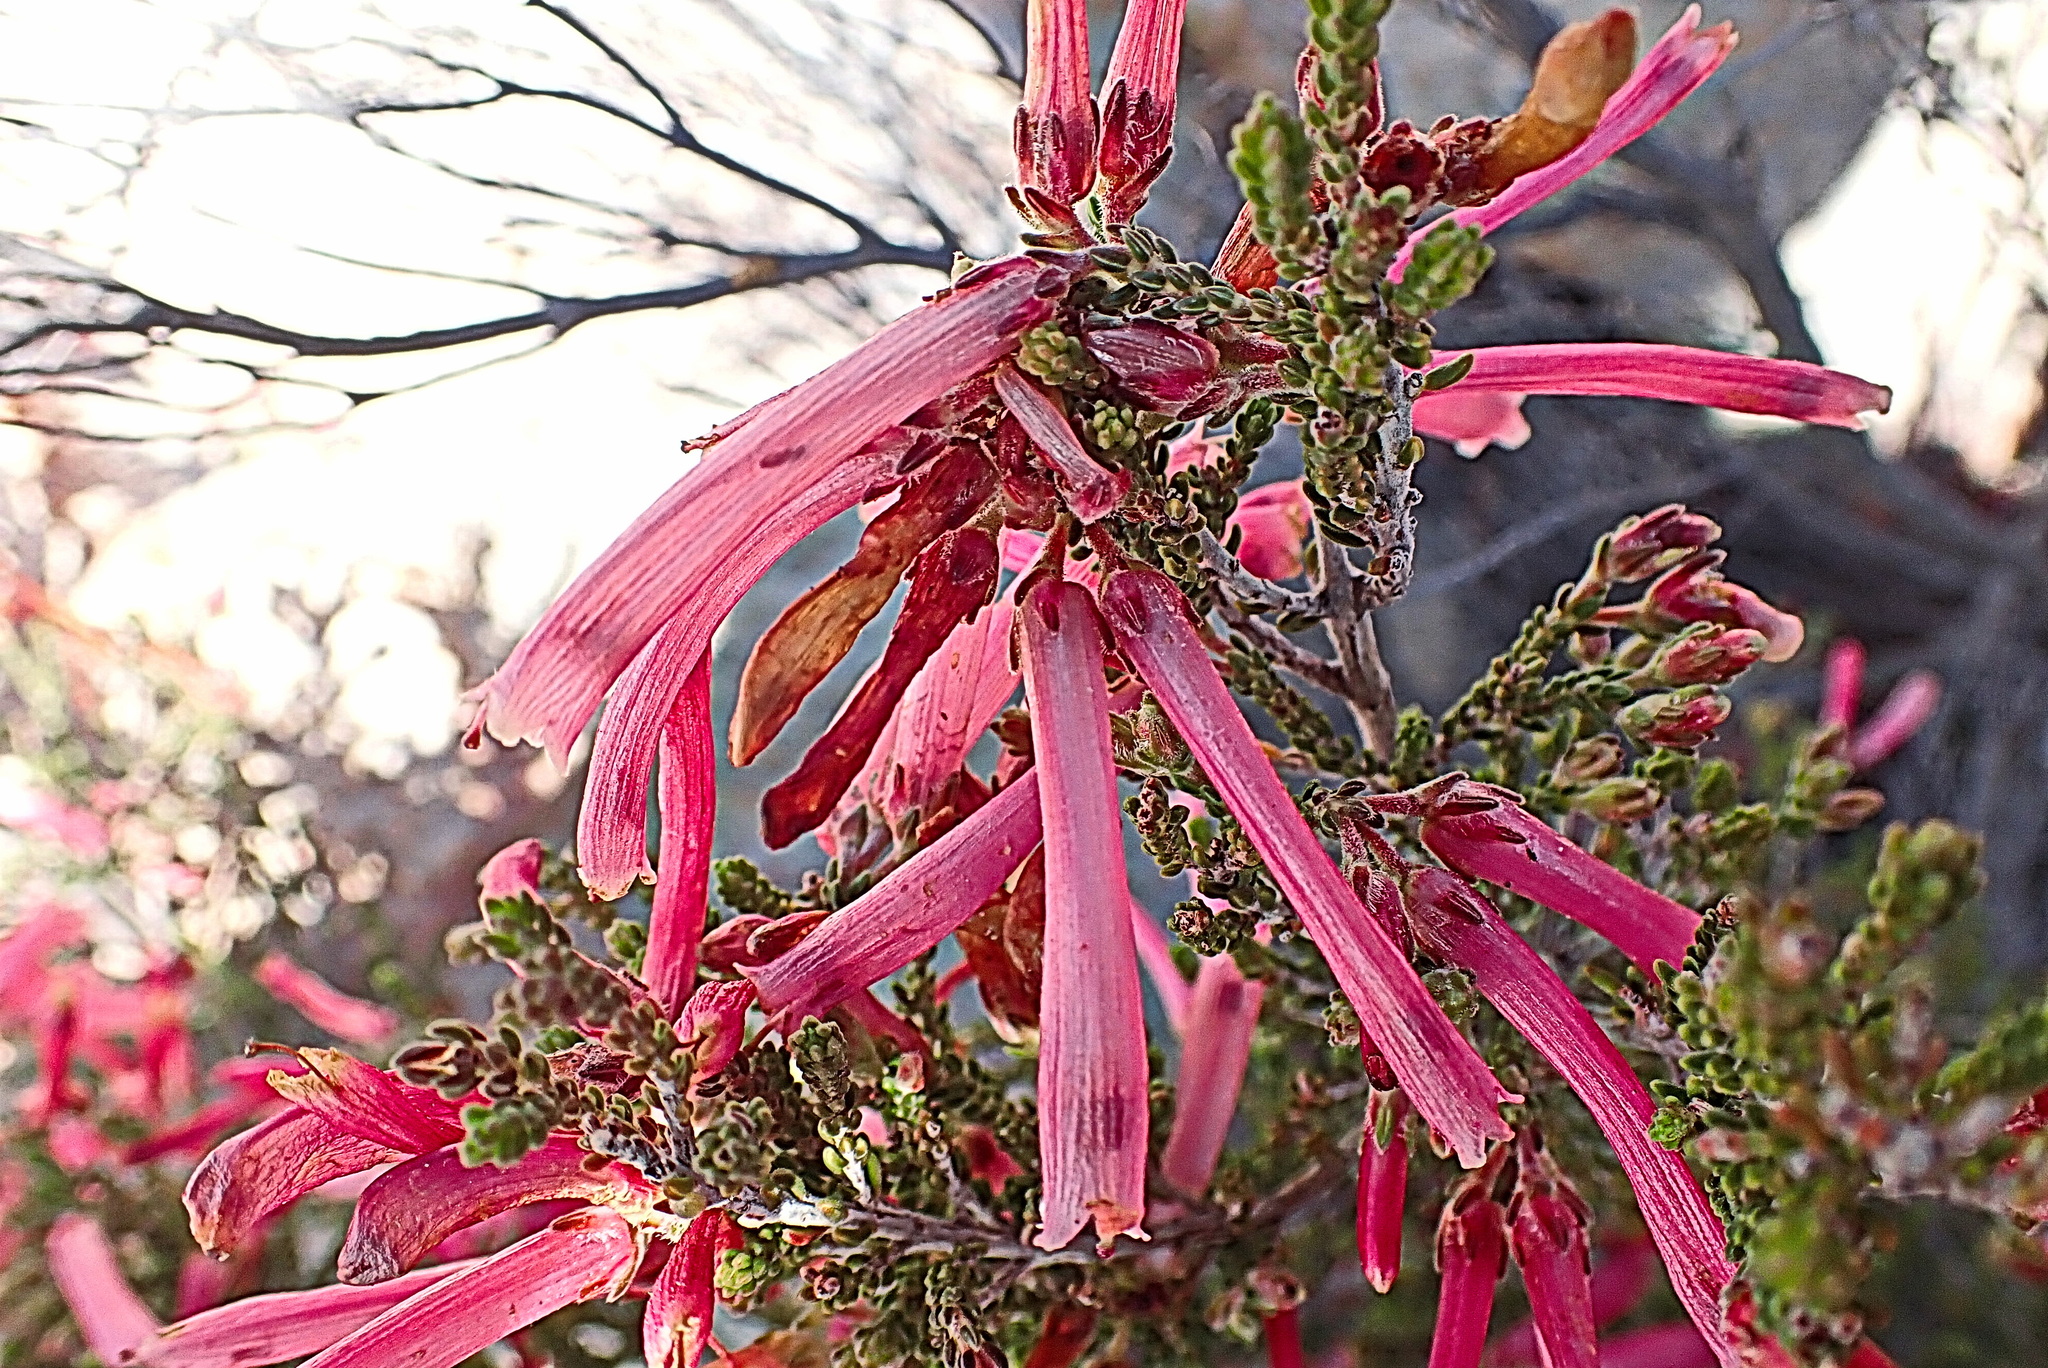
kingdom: Plantae
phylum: Tracheophyta
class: Magnoliopsida
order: Ericales
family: Ericaceae
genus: Erica
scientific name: Erica discolor
